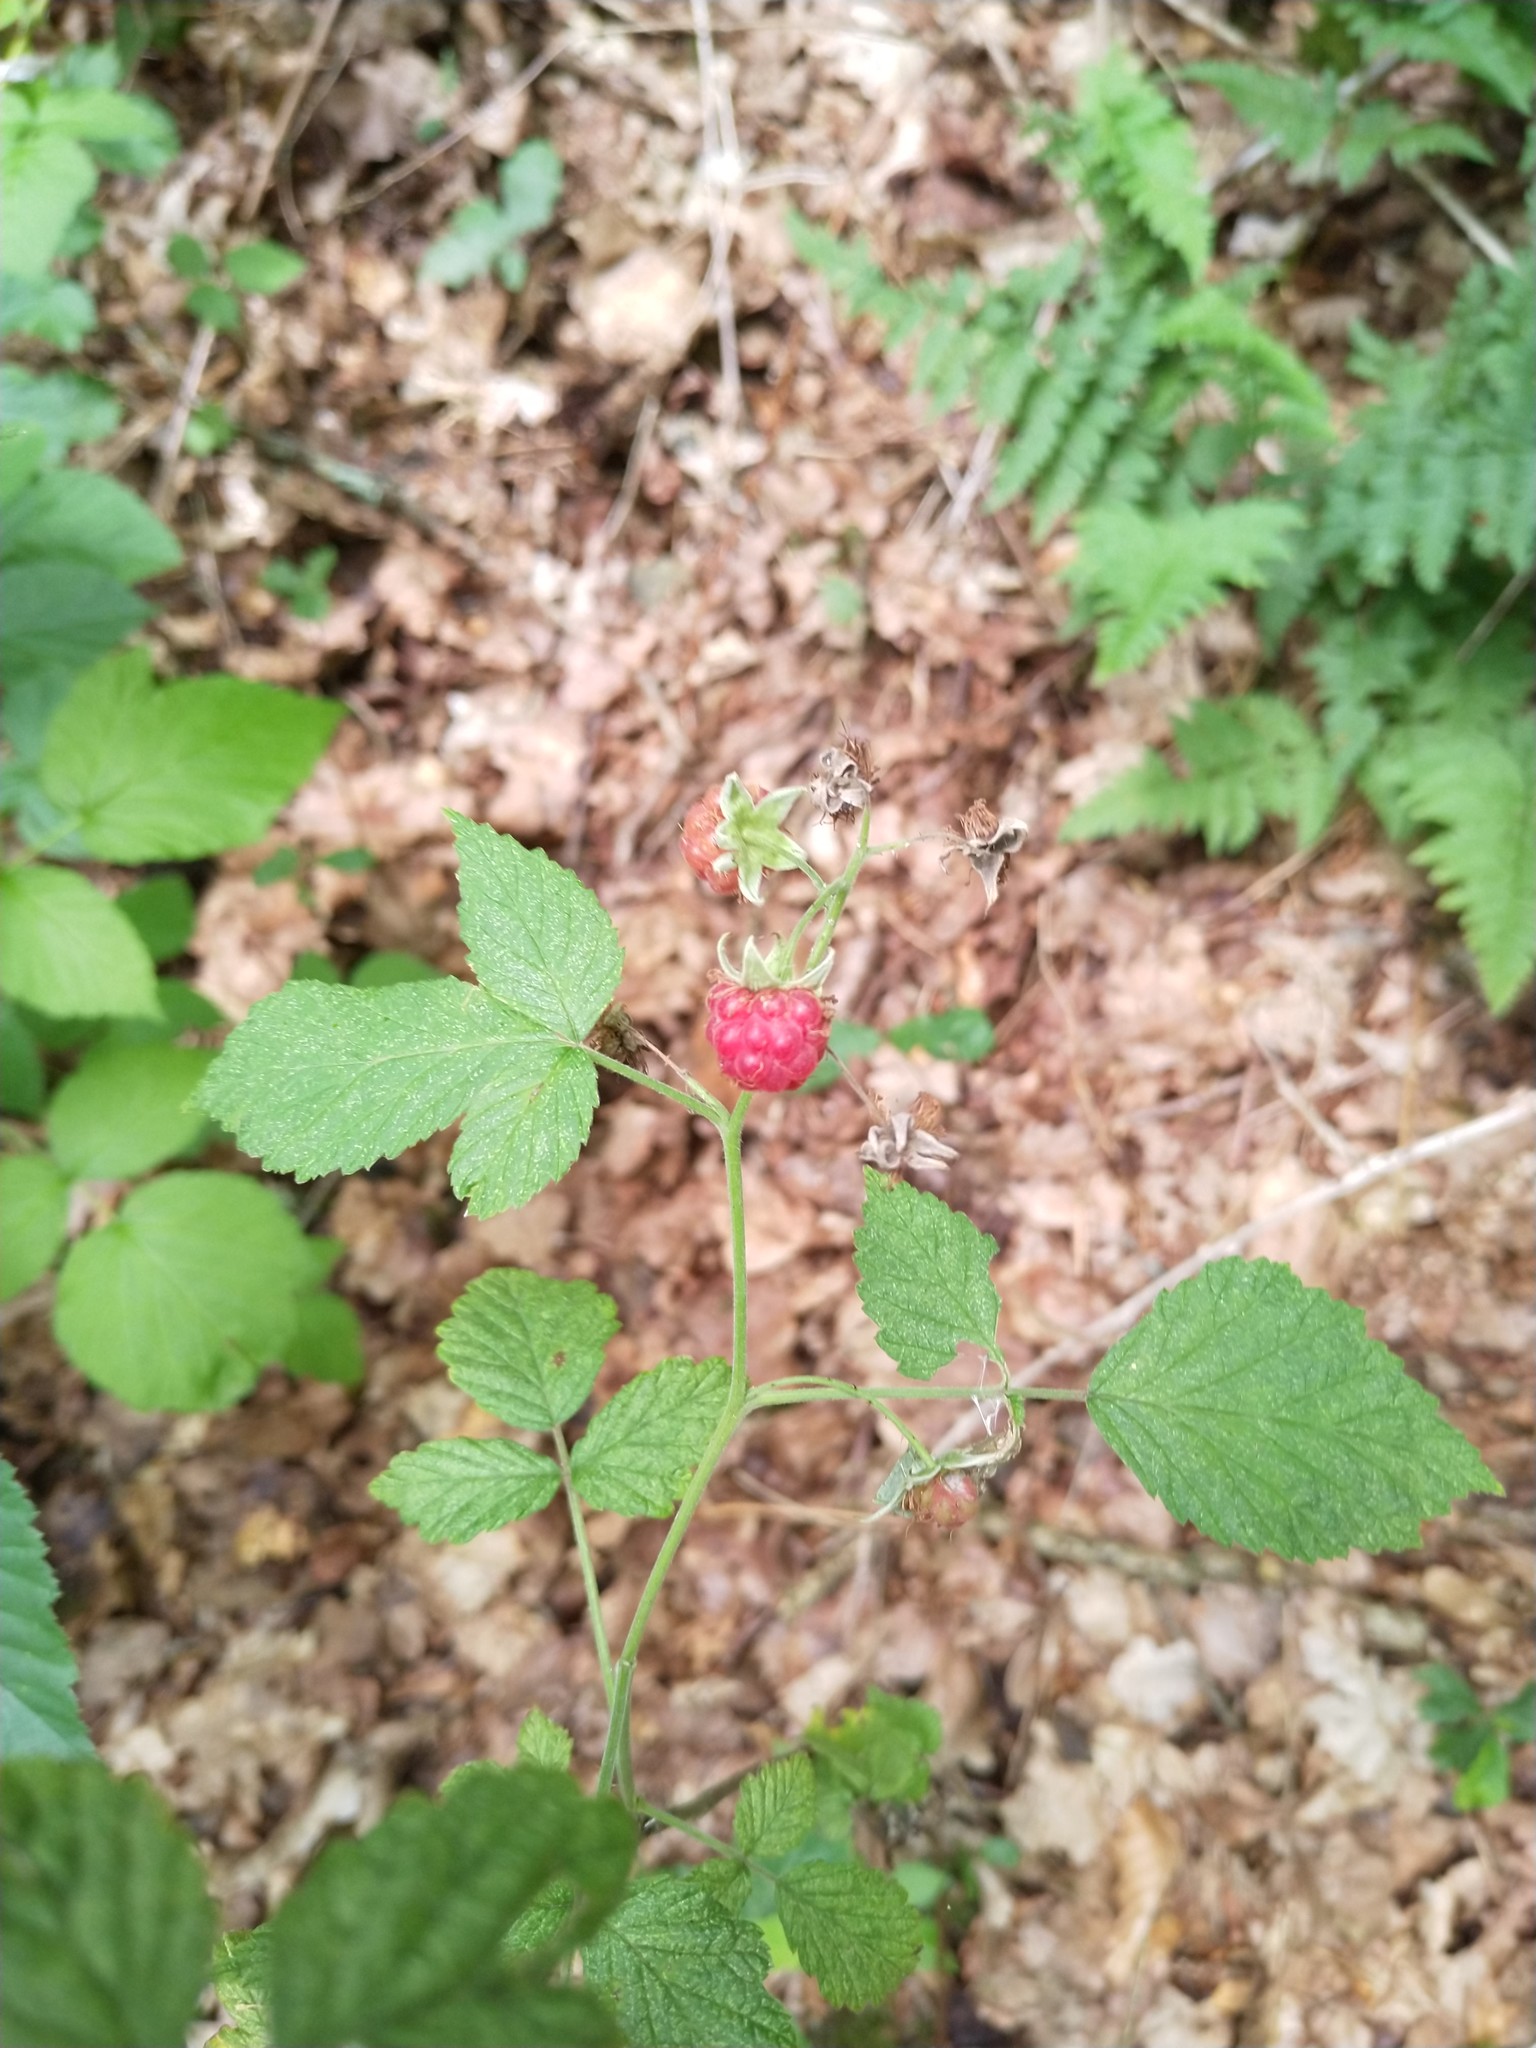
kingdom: Plantae
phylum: Tracheophyta
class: Magnoliopsida
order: Rosales
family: Rosaceae
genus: Rubus
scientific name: Rubus idaeus
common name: Raspberry
